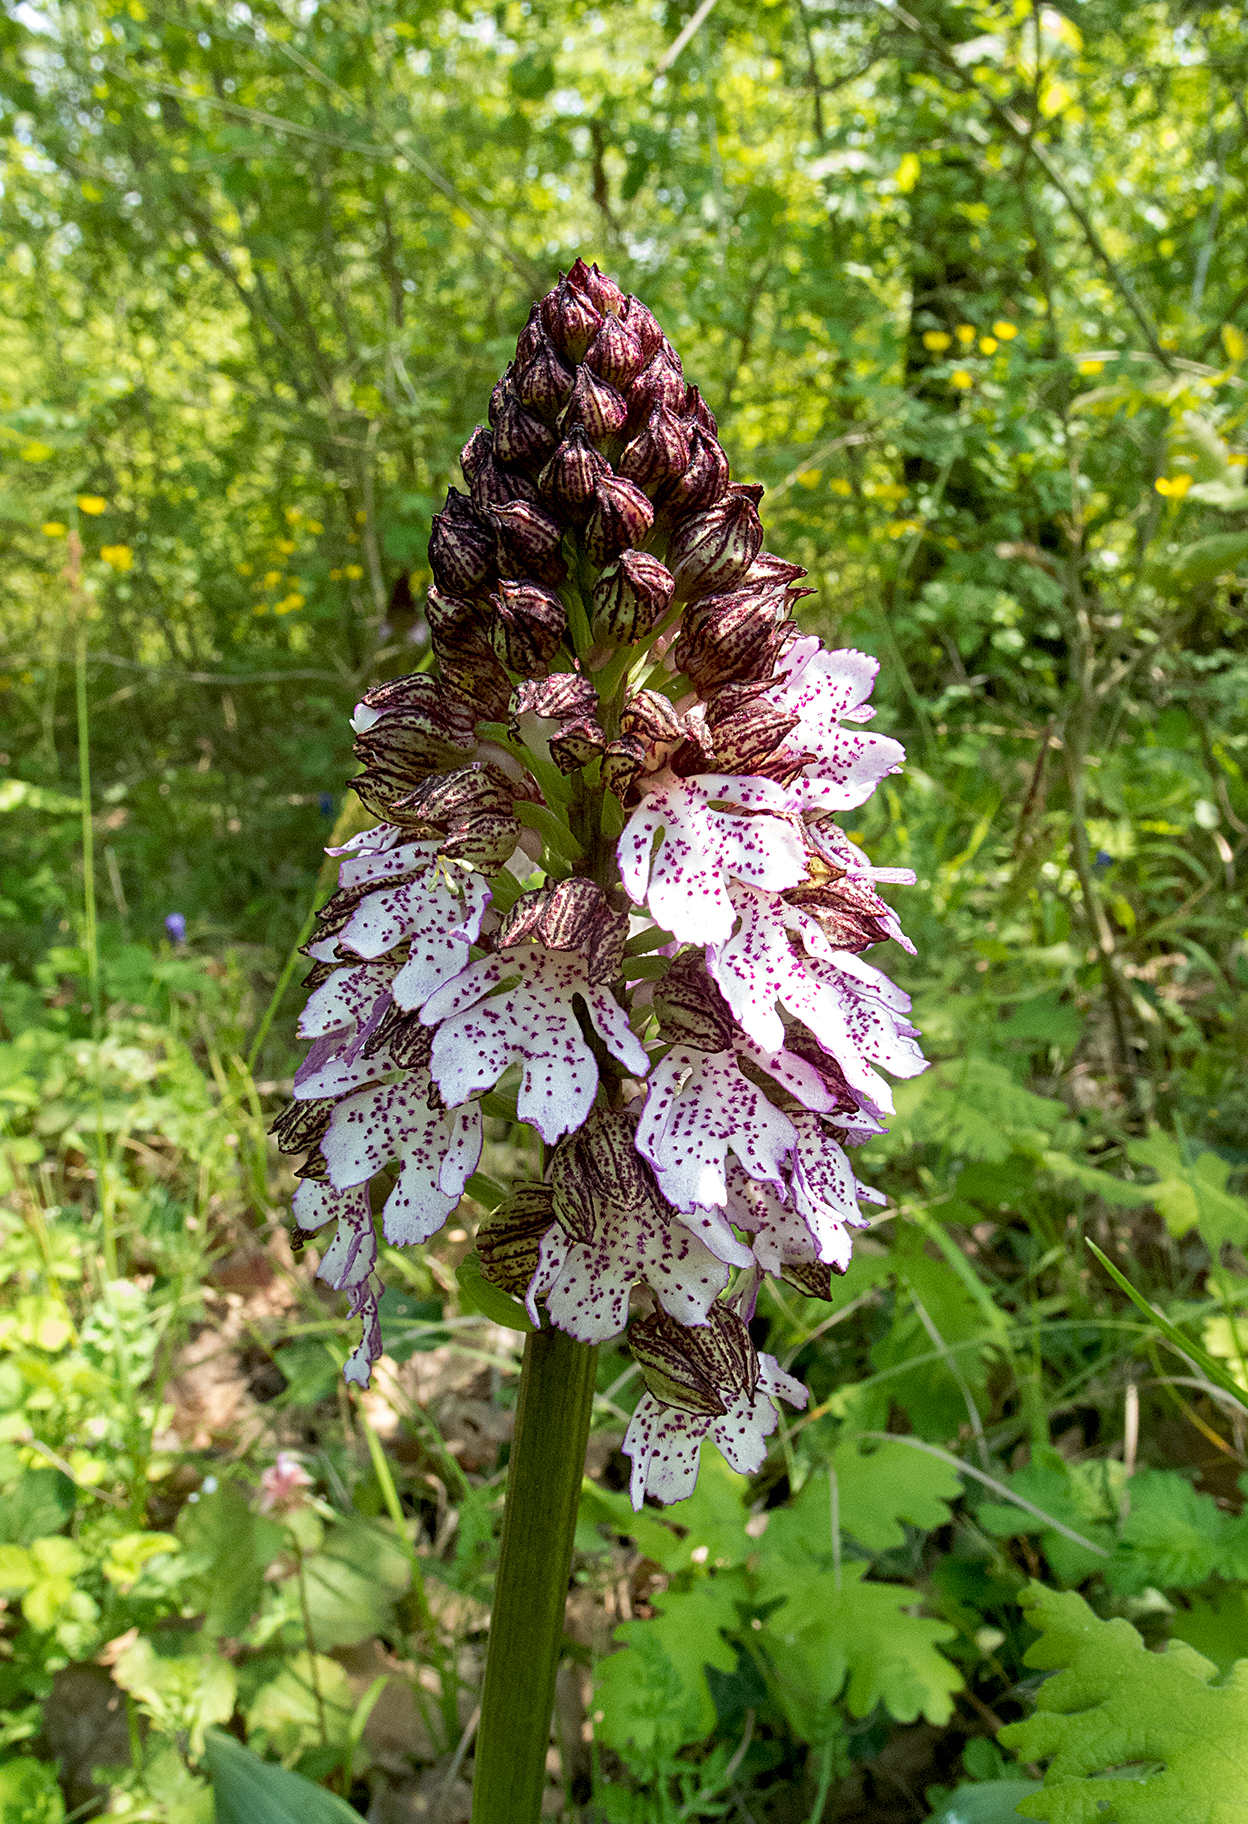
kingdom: Plantae
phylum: Tracheophyta
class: Liliopsida
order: Asparagales
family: Orchidaceae
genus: Orchis
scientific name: Orchis purpurea
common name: Lady orchid
